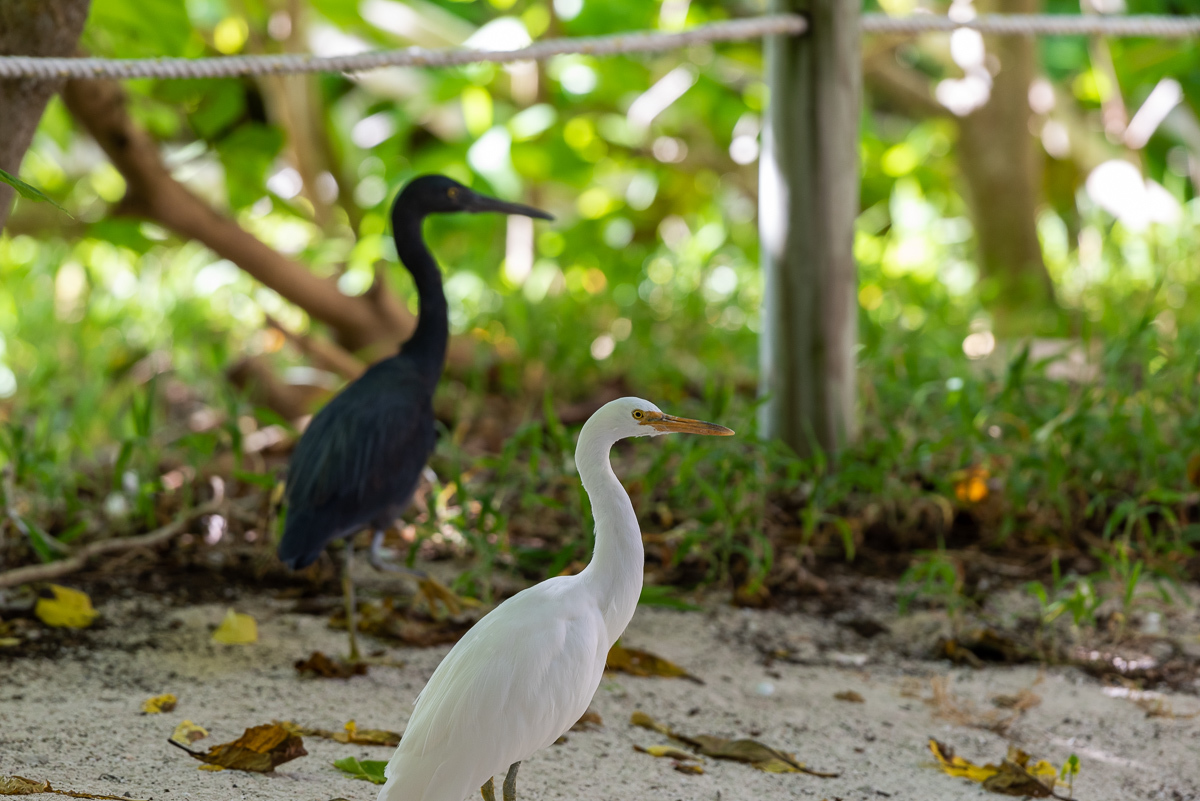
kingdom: Animalia
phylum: Chordata
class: Aves
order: Pelecaniformes
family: Ardeidae
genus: Egretta
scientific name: Egretta sacra
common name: Pacific reef heron
